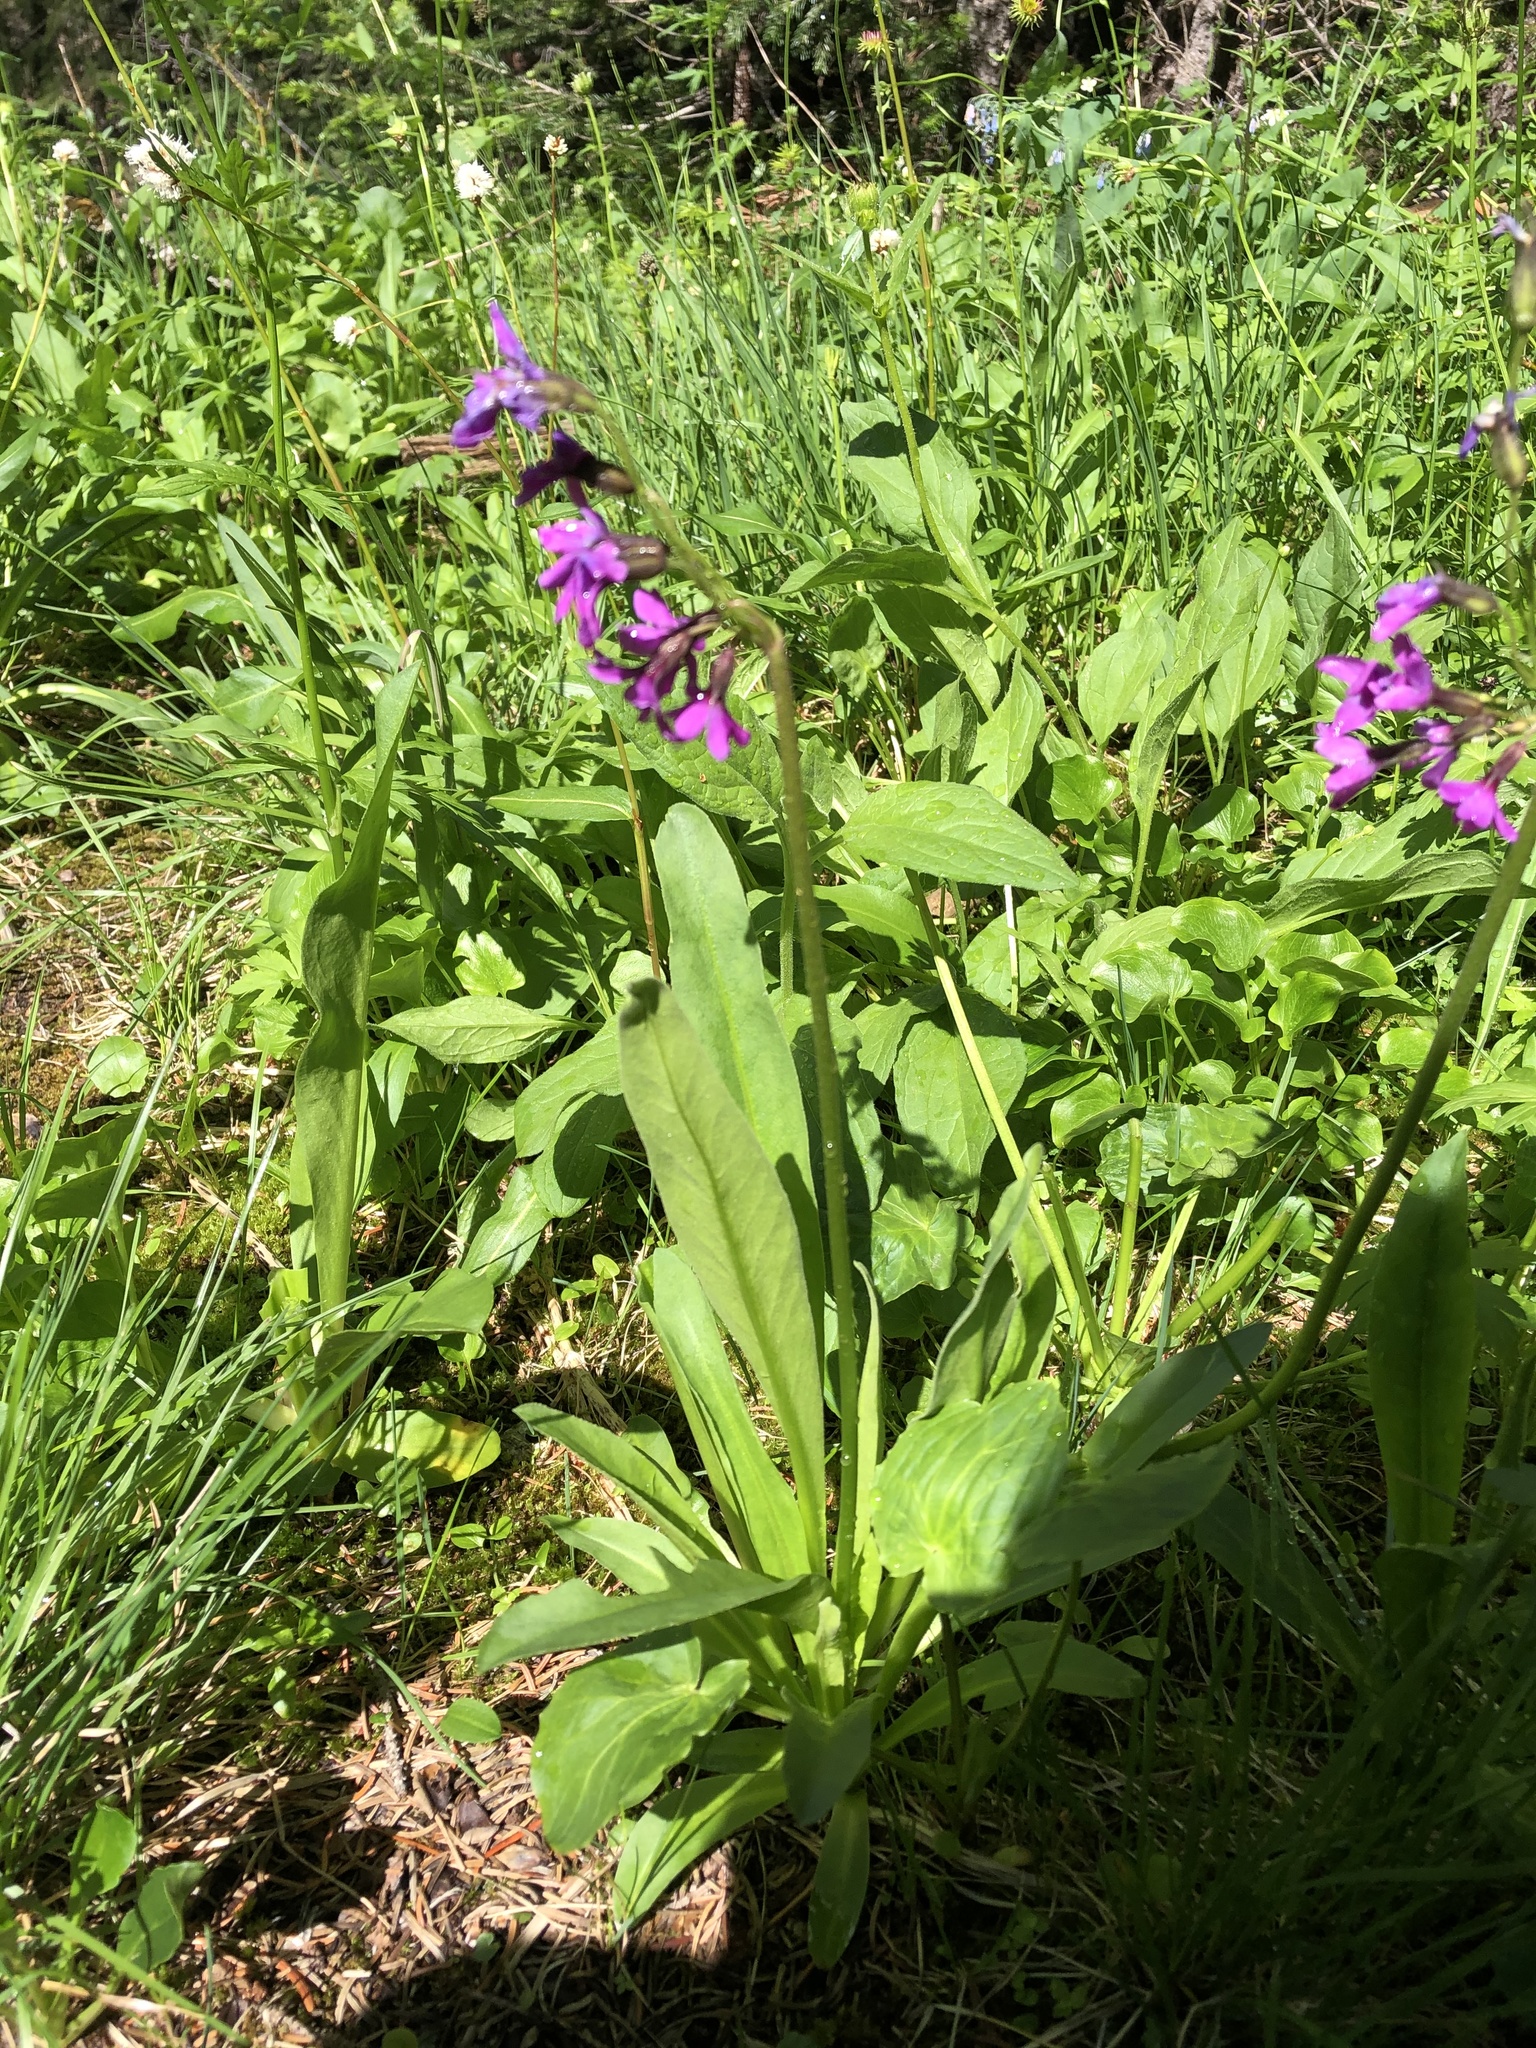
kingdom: Plantae
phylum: Tracheophyta
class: Magnoliopsida
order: Ericales
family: Primulaceae
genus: Primula
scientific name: Primula parryi
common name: Parry's primrose
